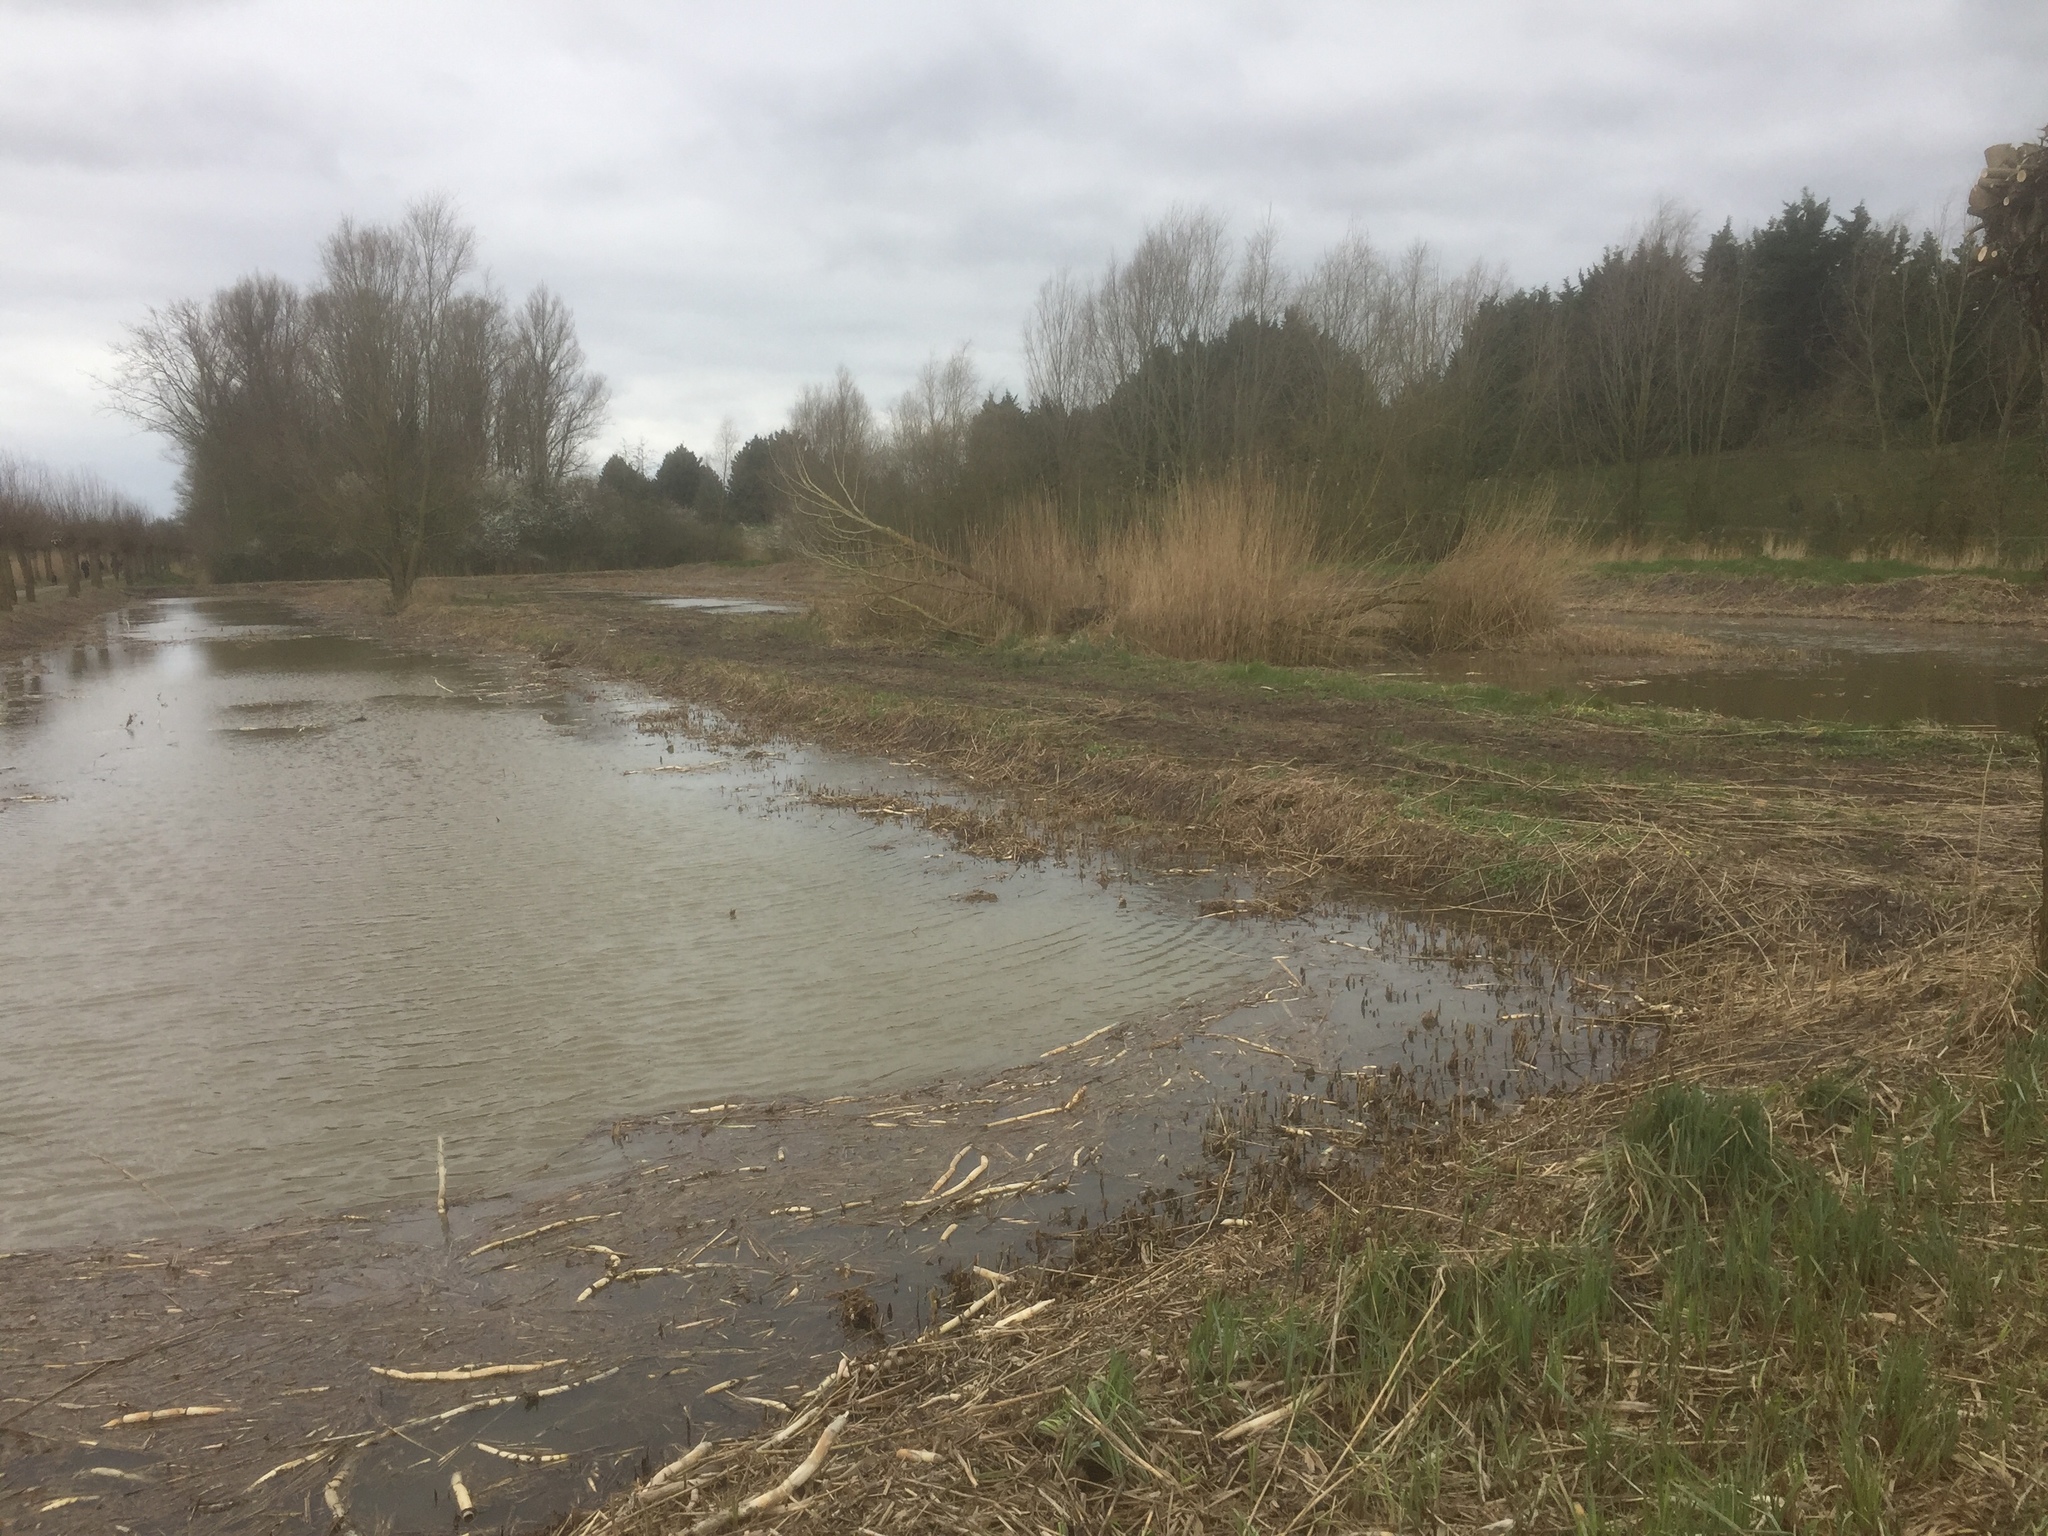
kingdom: Plantae
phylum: Tracheophyta
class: Liliopsida
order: Poales
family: Poaceae
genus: Phragmites
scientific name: Phragmites australis
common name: Common reed
